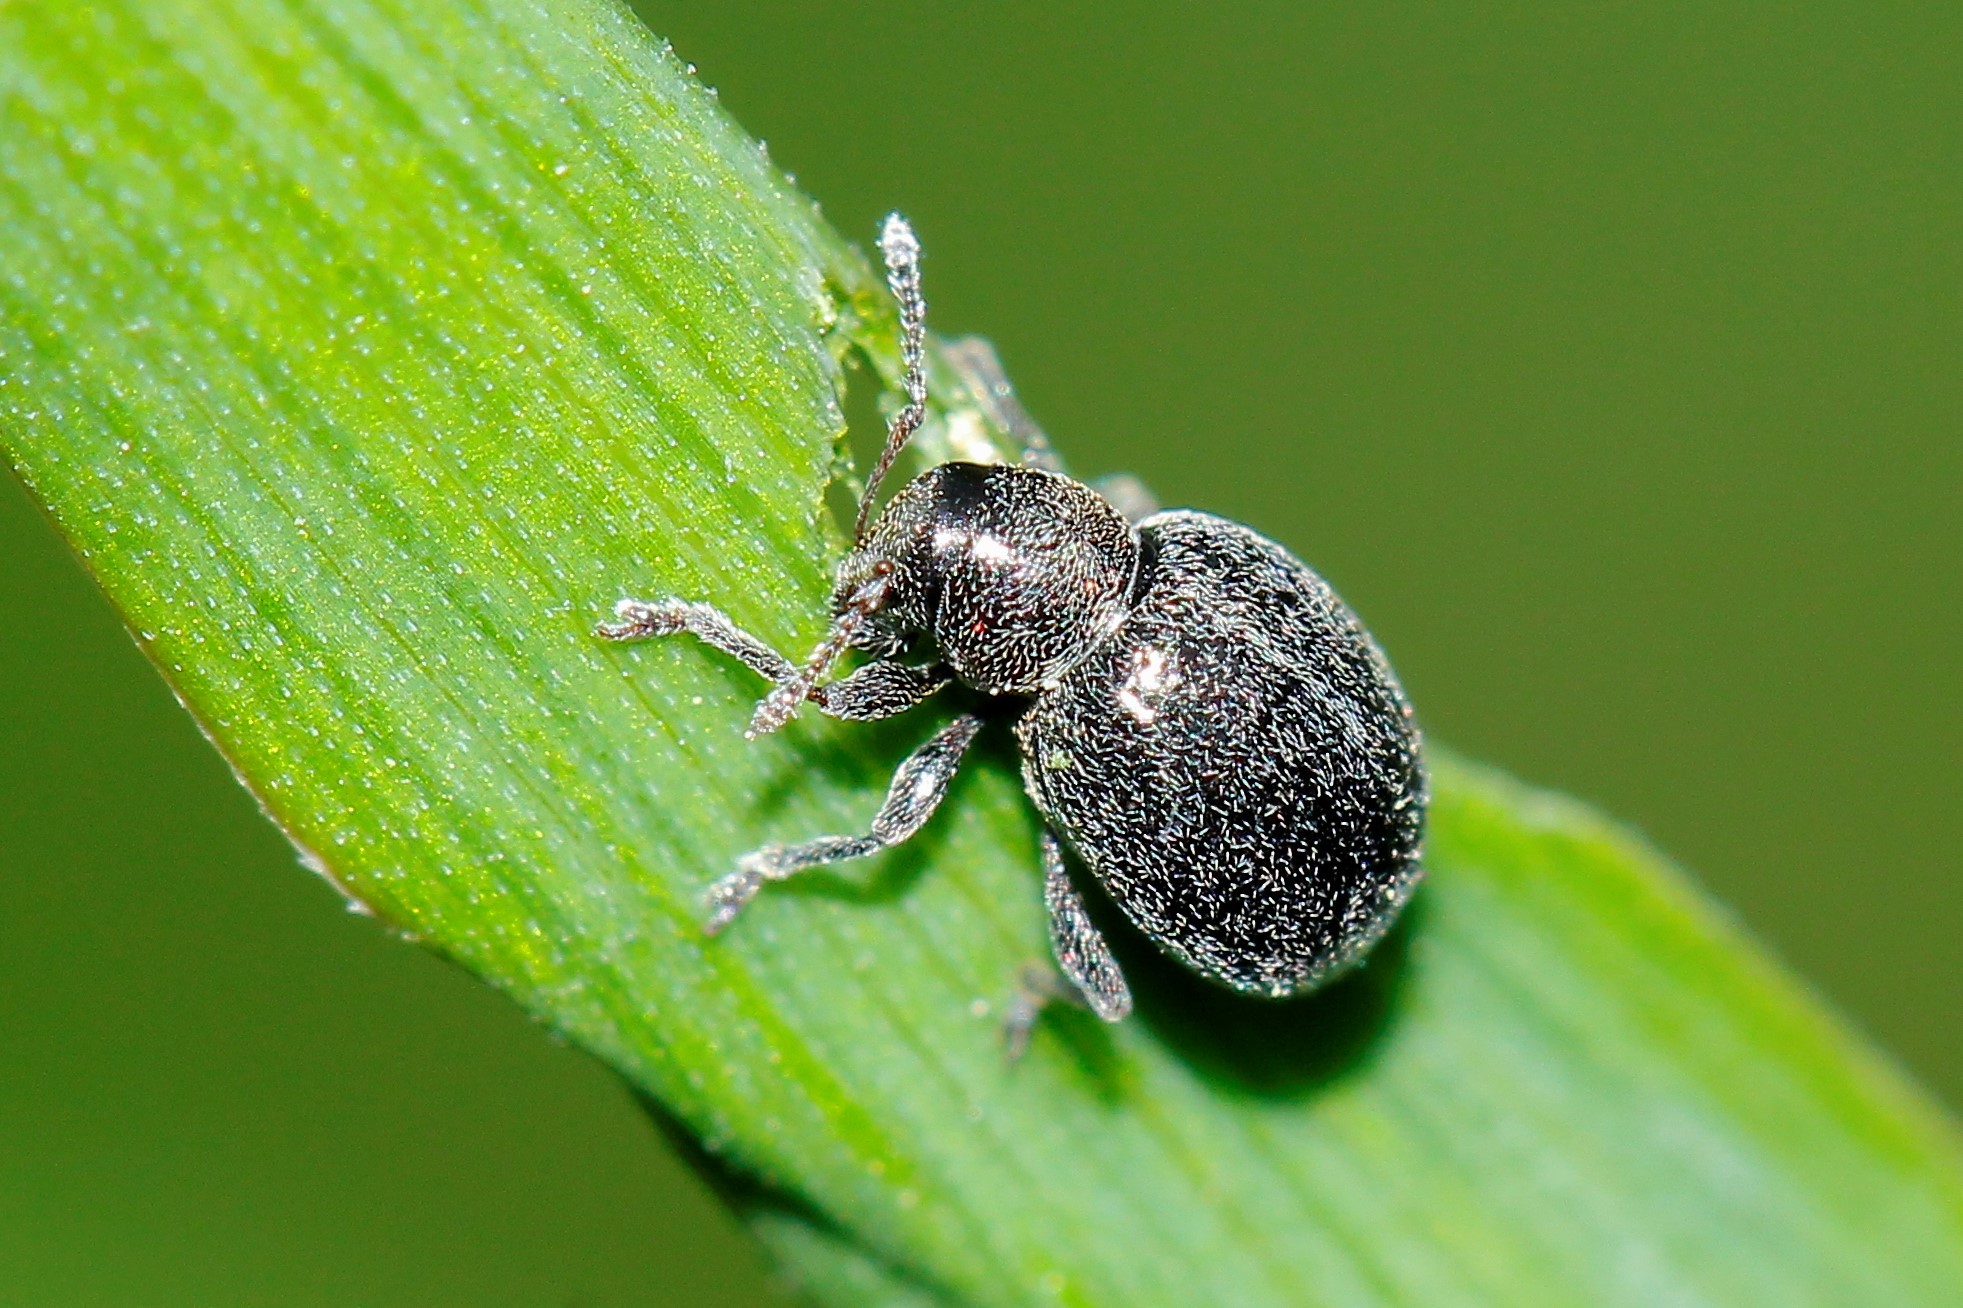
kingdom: Animalia
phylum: Arthropoda
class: Insecta
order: Coleoptera
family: Curculionidae
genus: Omias
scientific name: Omias puberulus
